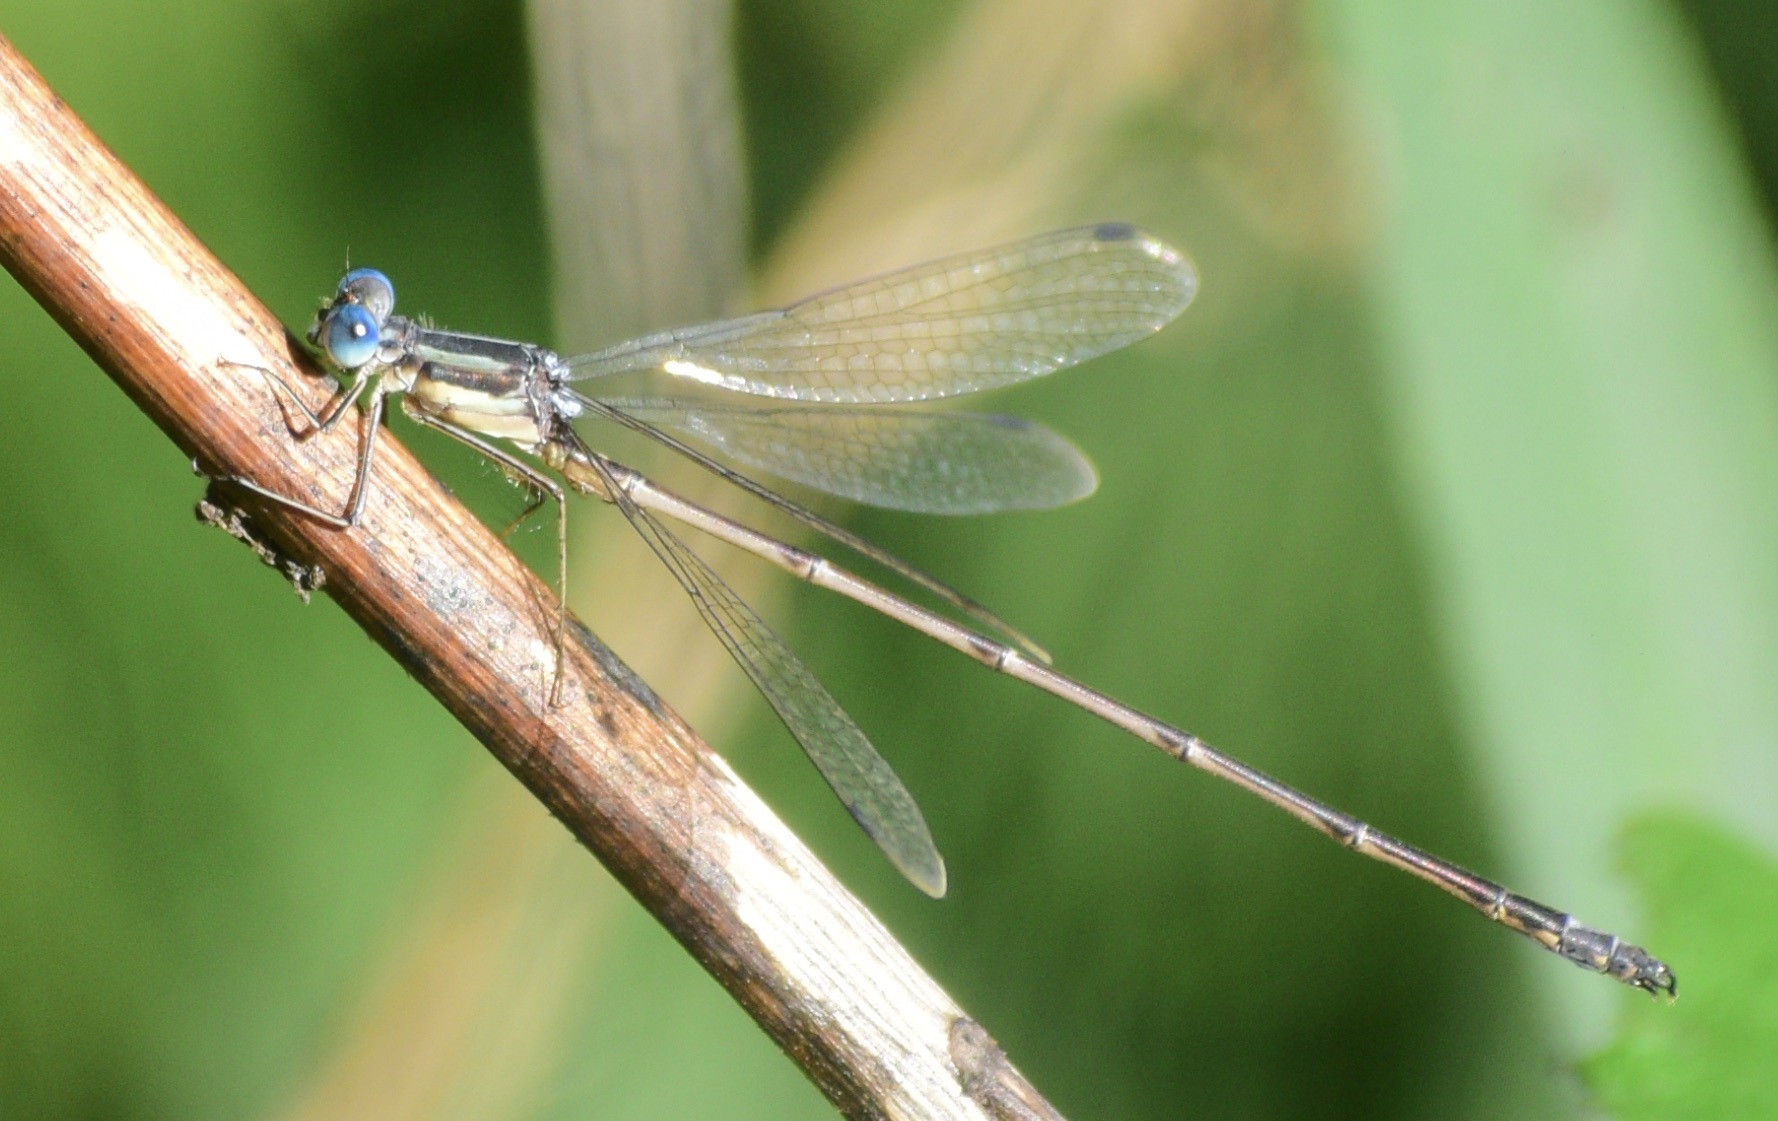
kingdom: Animalia
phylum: Arthropoda
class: Insecta
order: Odonata
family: Lestidae
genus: Lestes
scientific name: Lestes rectangularis
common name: Slender spreadwing
